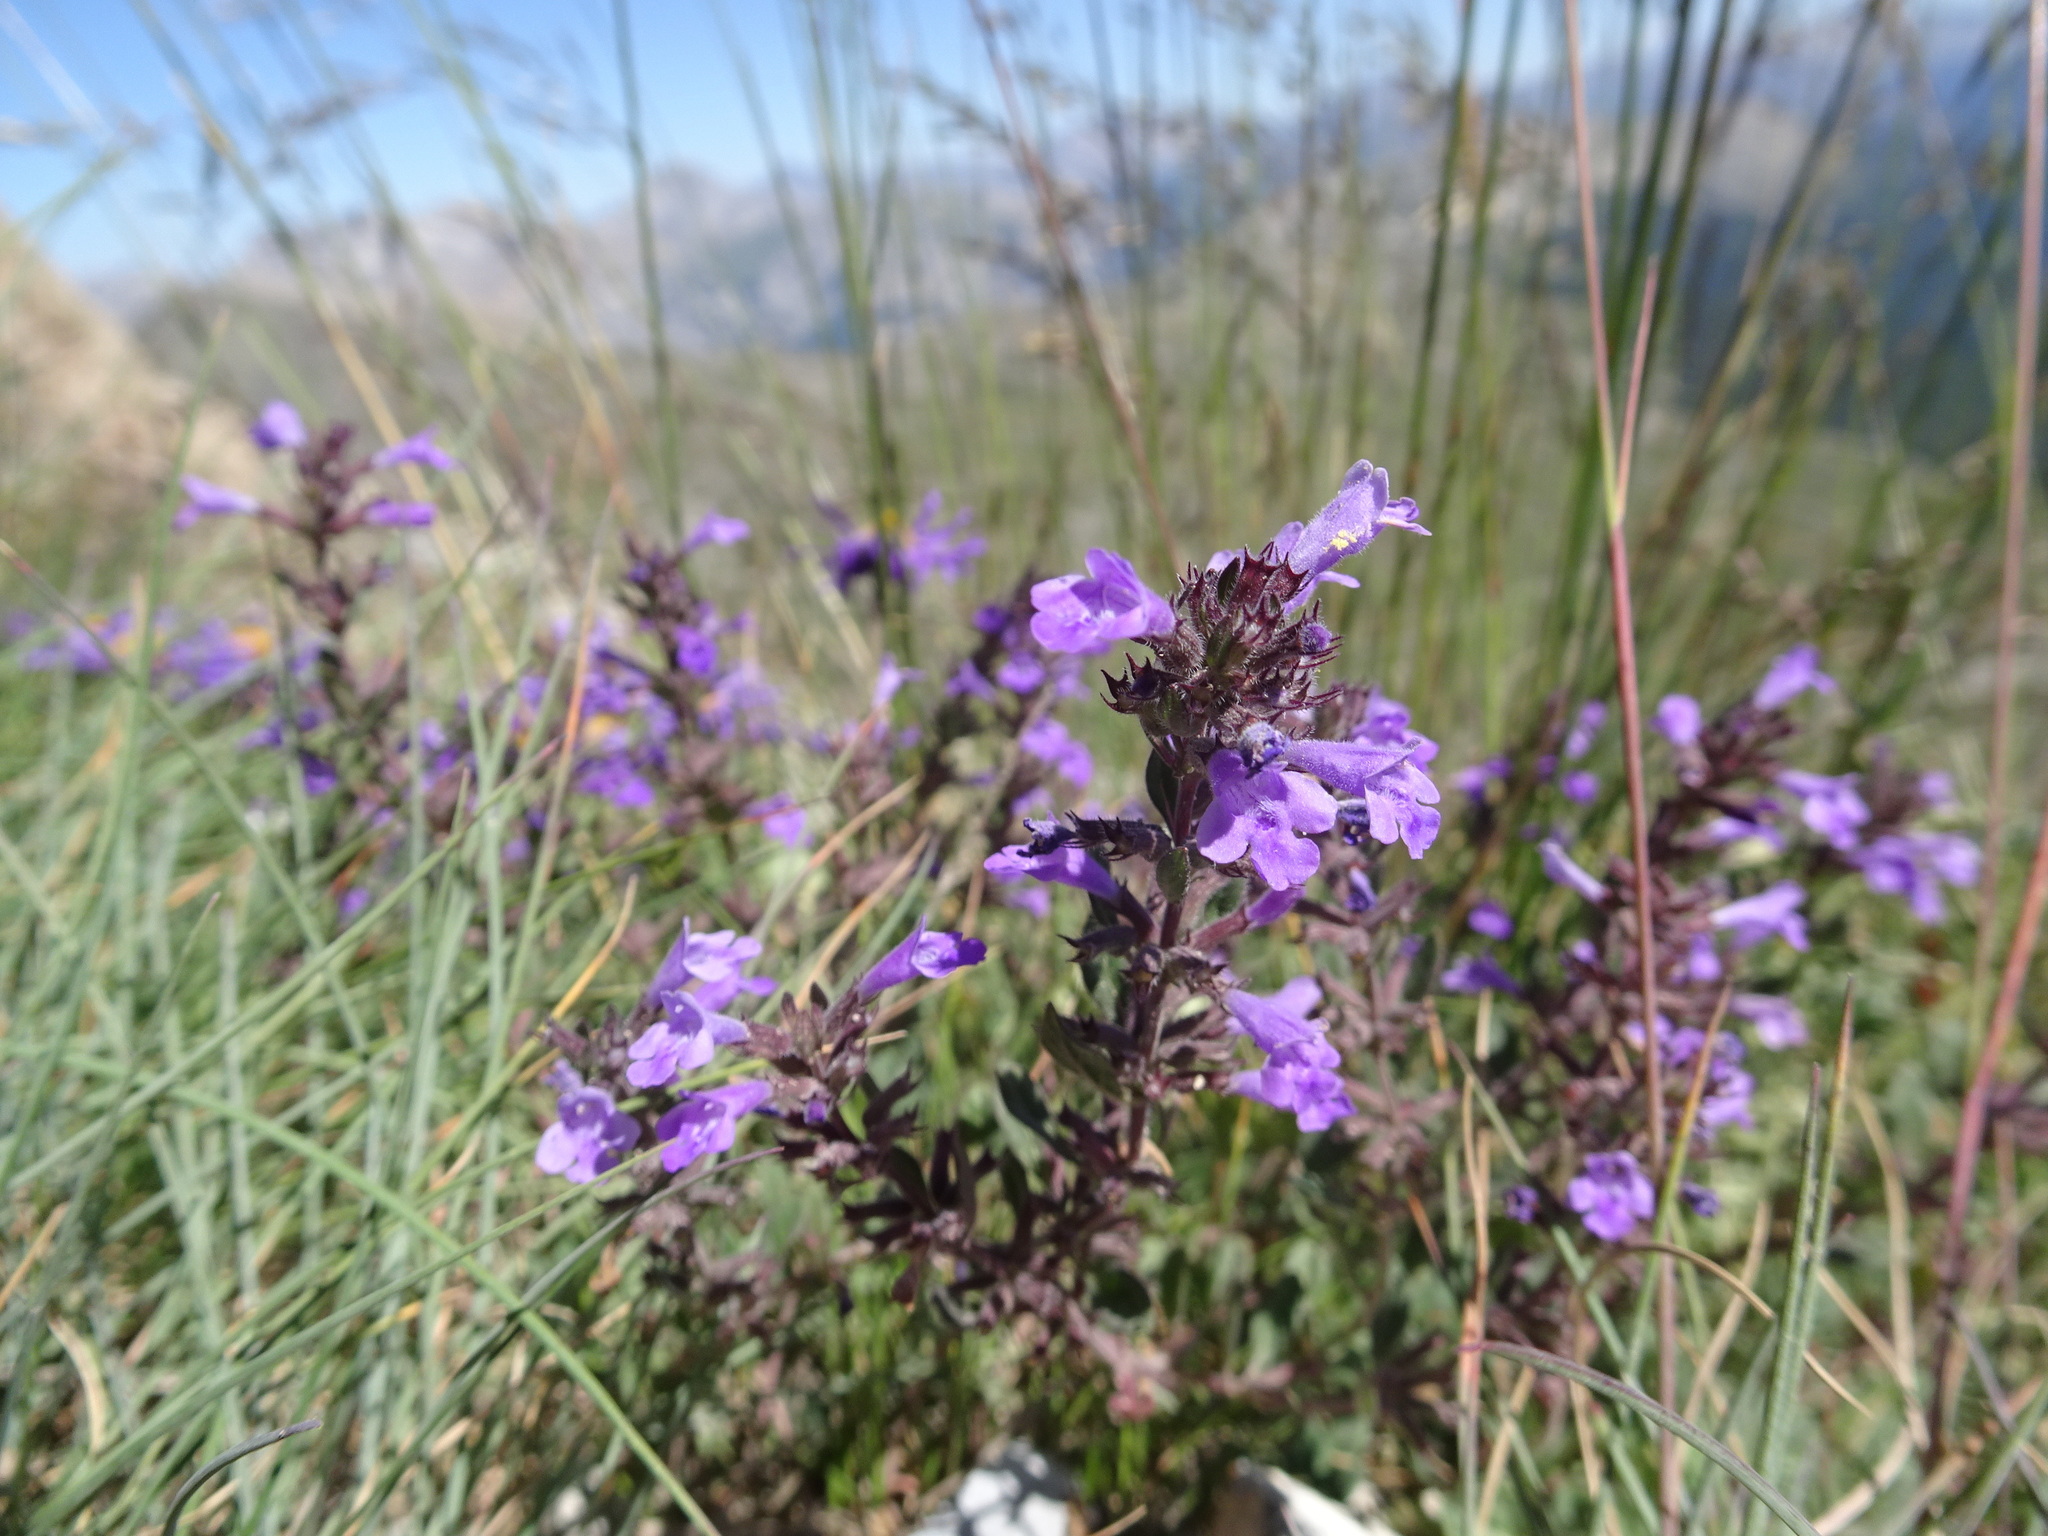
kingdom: Plantae
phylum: Tracheophyta
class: Magnoliopsida
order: Lamiales
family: Lamiaceae
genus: Clinopodium
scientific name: Clinopodium alpinum
